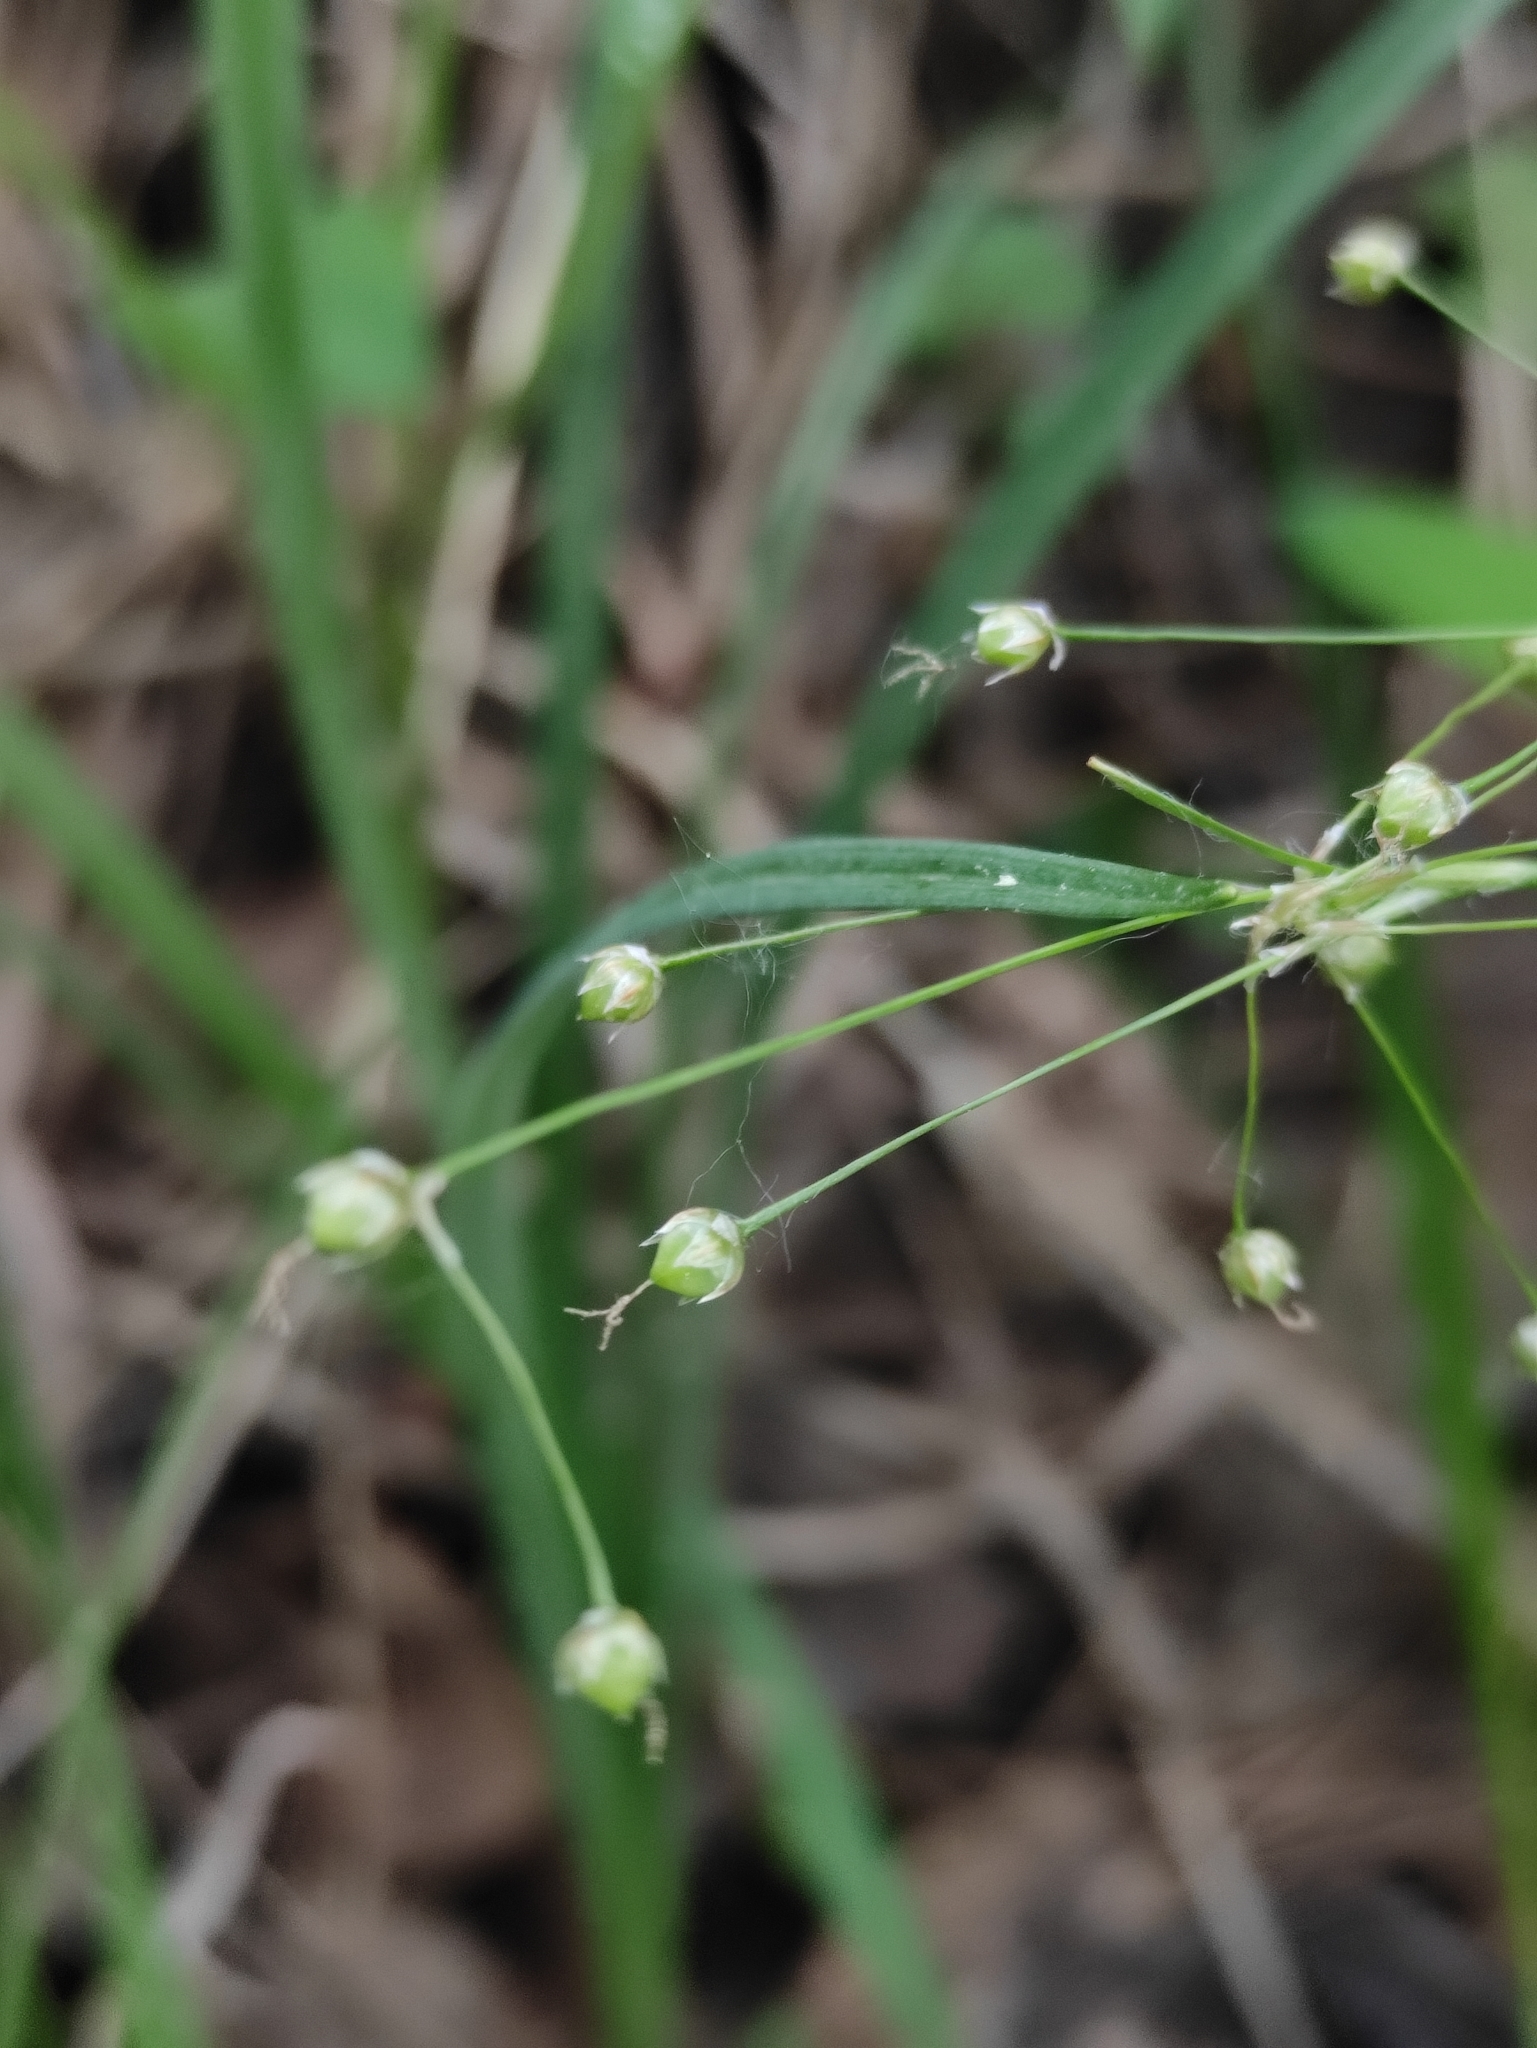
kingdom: Plantae
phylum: Tracheophyta
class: Liliopsida
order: Poales
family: Juncaceae
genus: Luzula
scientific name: Luzula pilosa
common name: Hairy wood-rush
